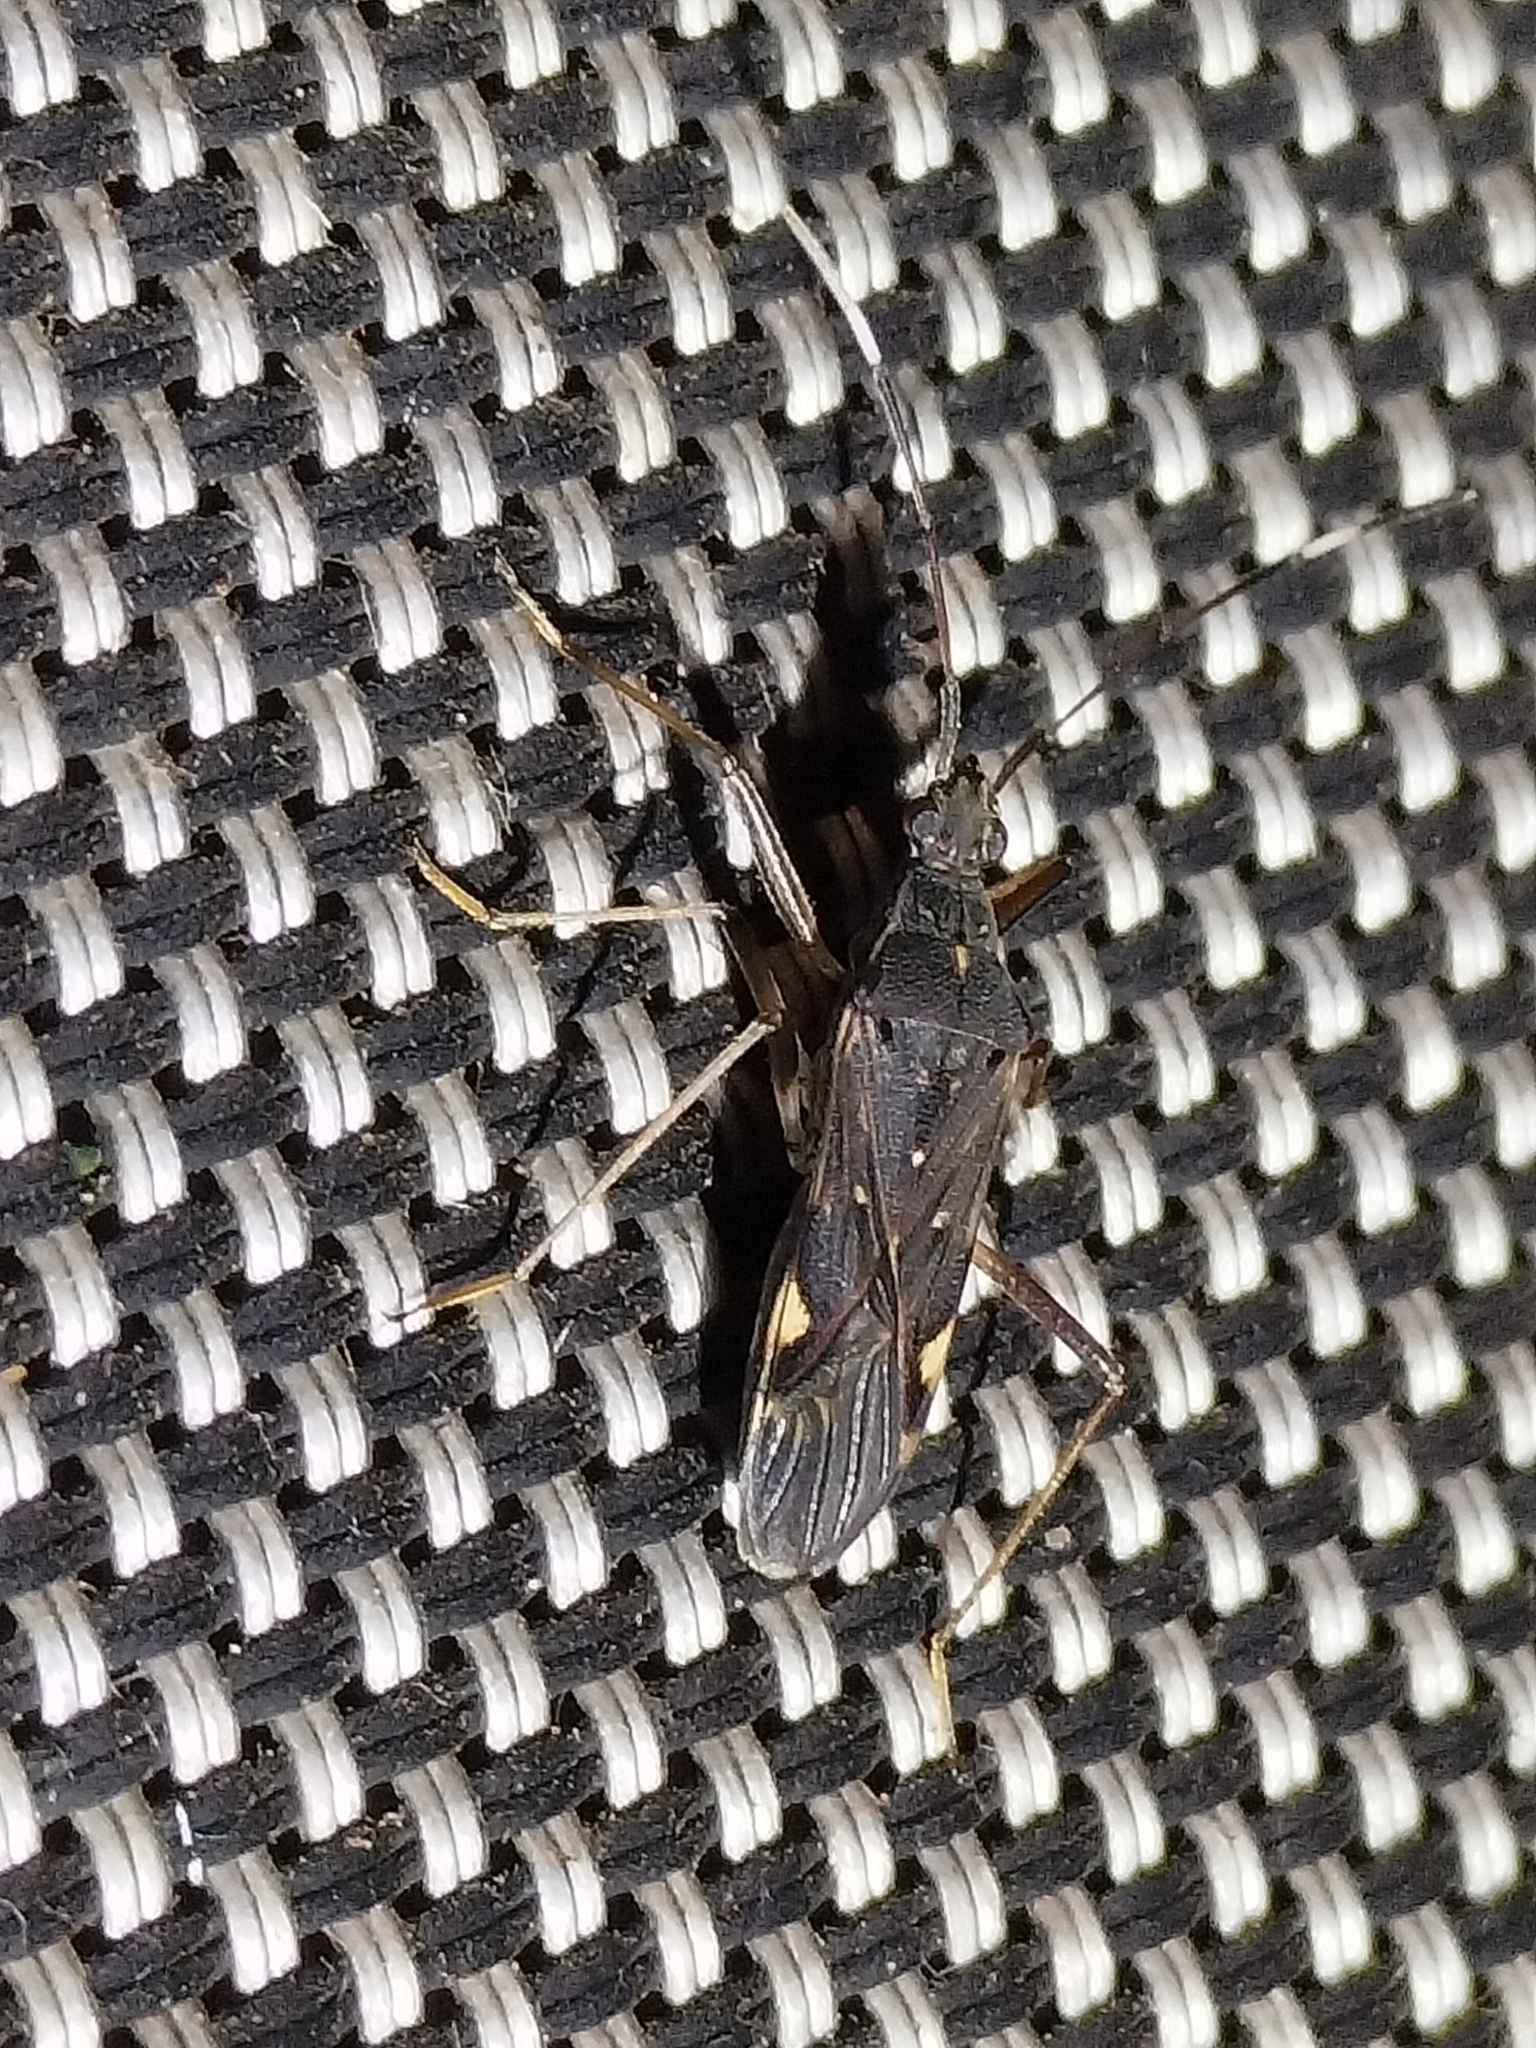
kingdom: Animalia
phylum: Arthropoda
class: Insecta
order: Hemiptera
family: Rhyparochromidae
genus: Narbo
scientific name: Narbo biplagiatus
